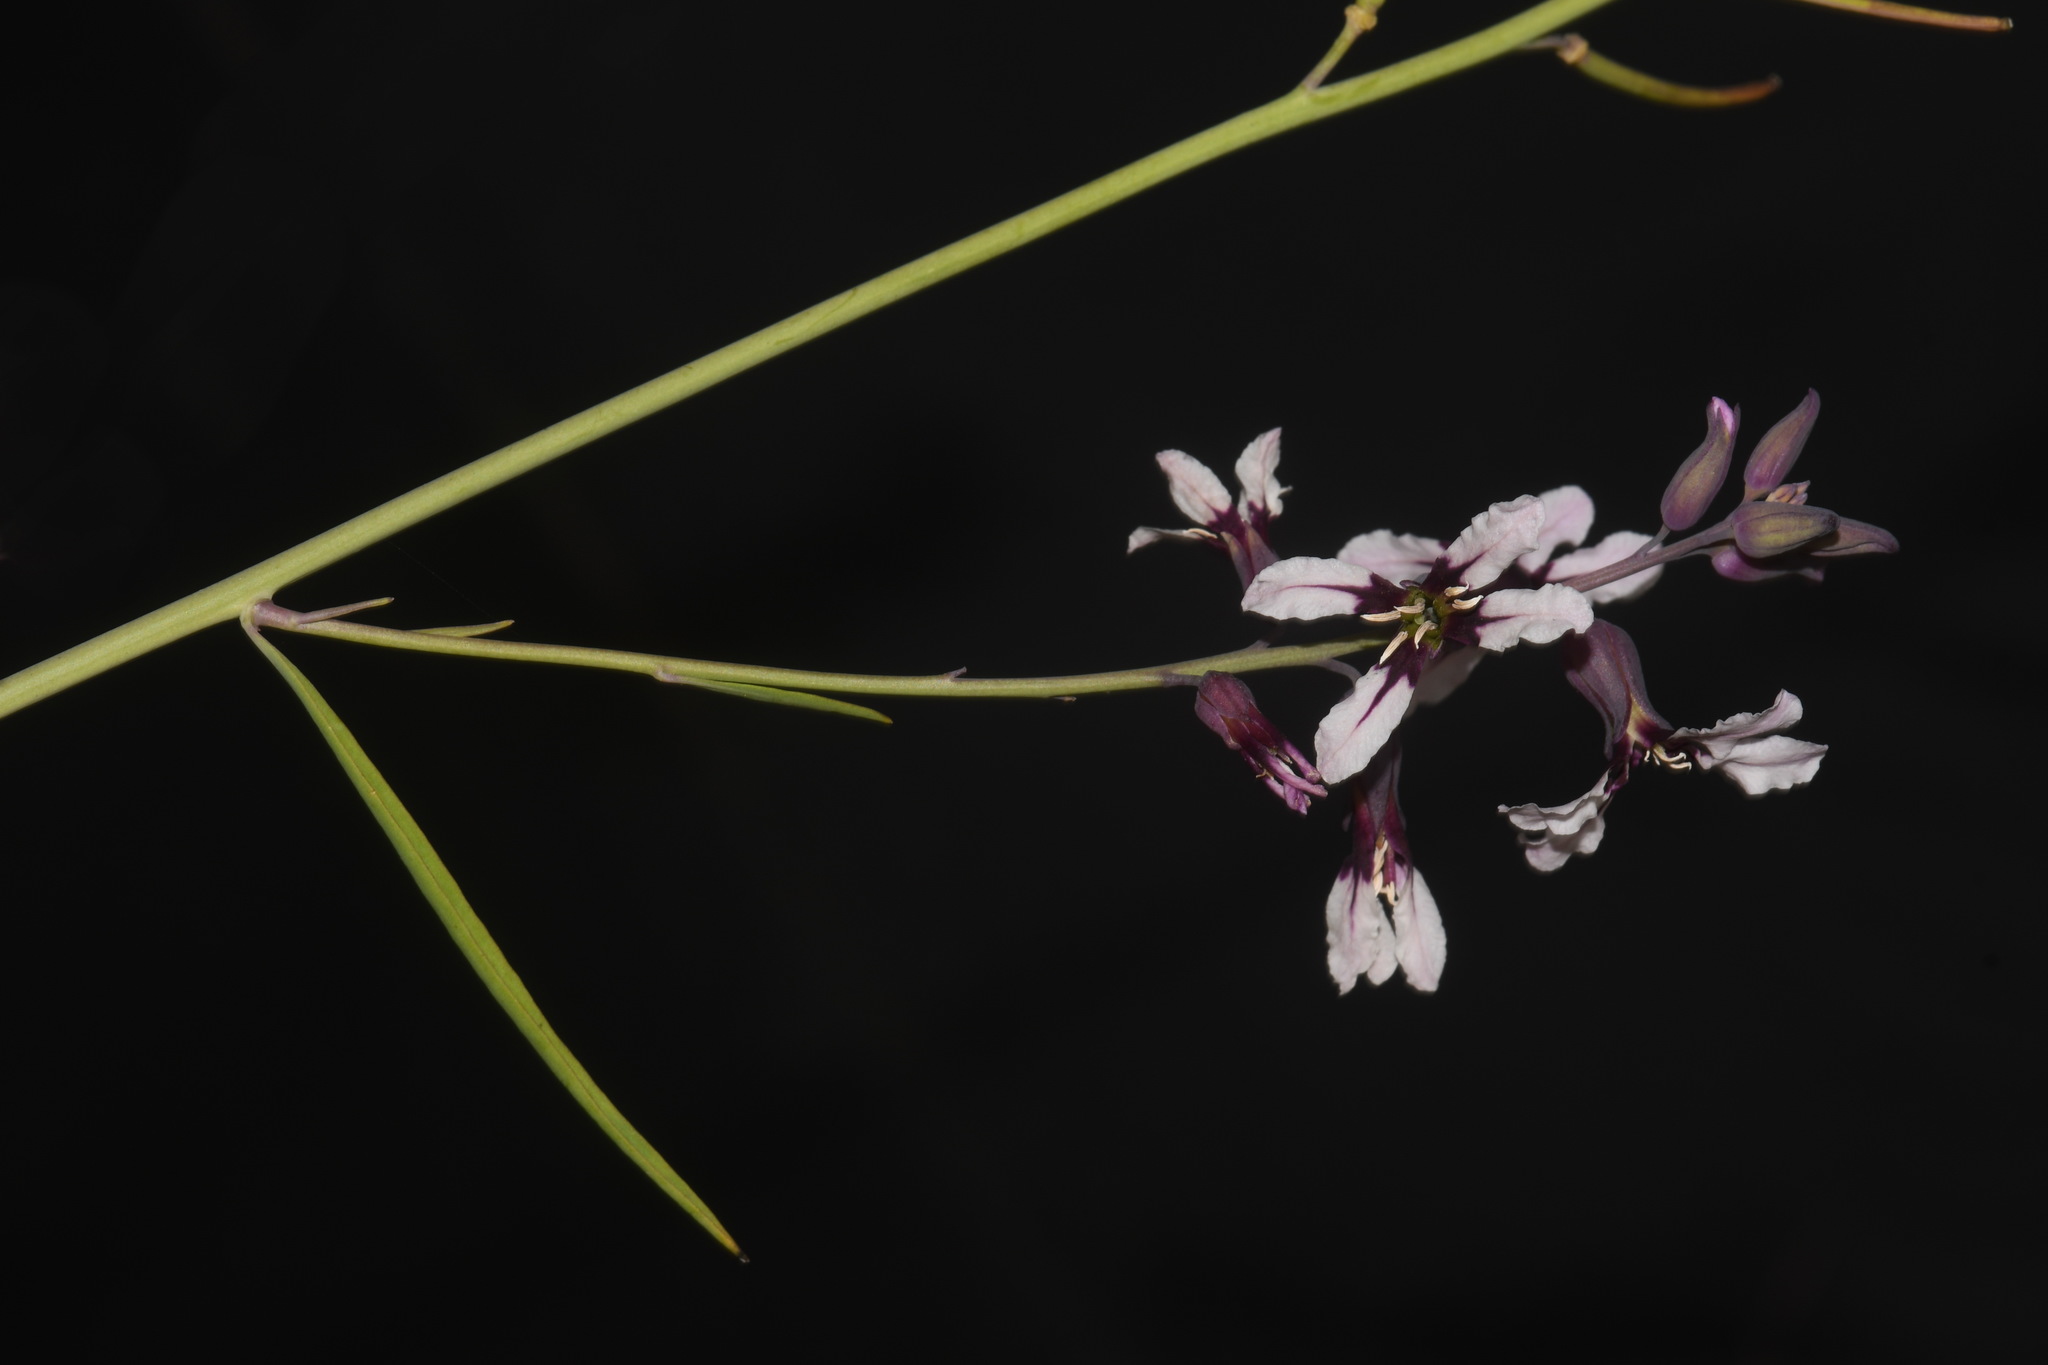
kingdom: Plantae
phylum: Tracheophyta
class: Magnoliopsida
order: Brassicales
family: Brassicaceae
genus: Streptanthus
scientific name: Streptanthus hyacinthoides
